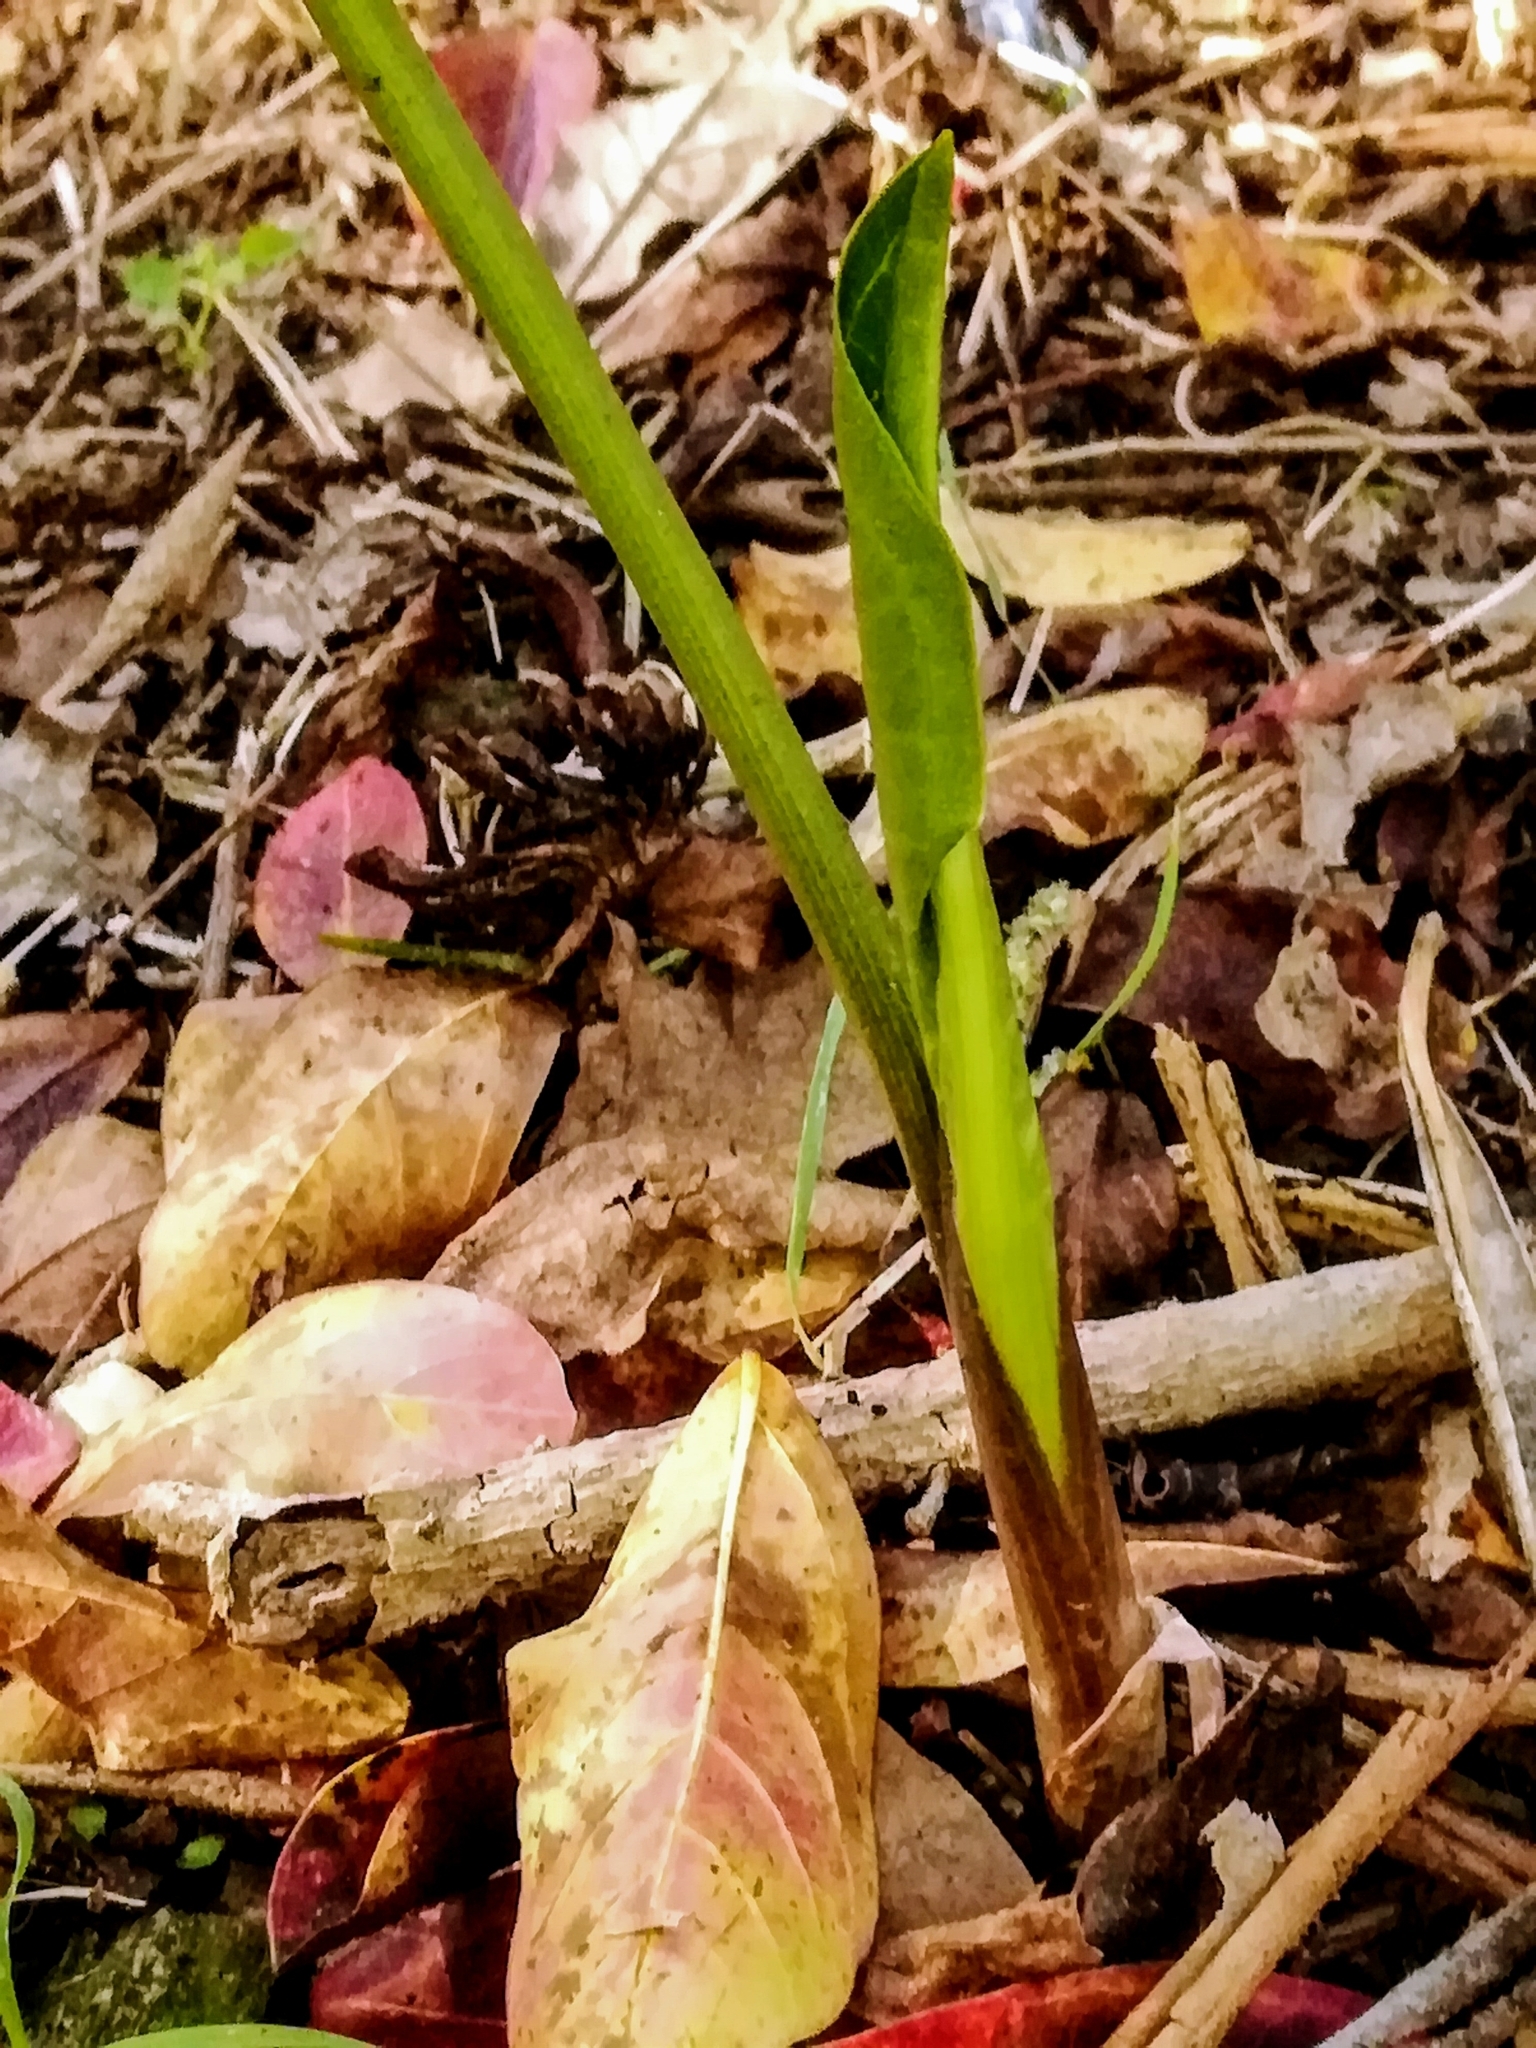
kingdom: Plantae
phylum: Tracheophyta
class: Liliopsida
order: Alismatales
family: Araceae
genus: Arum
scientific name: Arum italicum
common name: Italian lords-and-ladies
